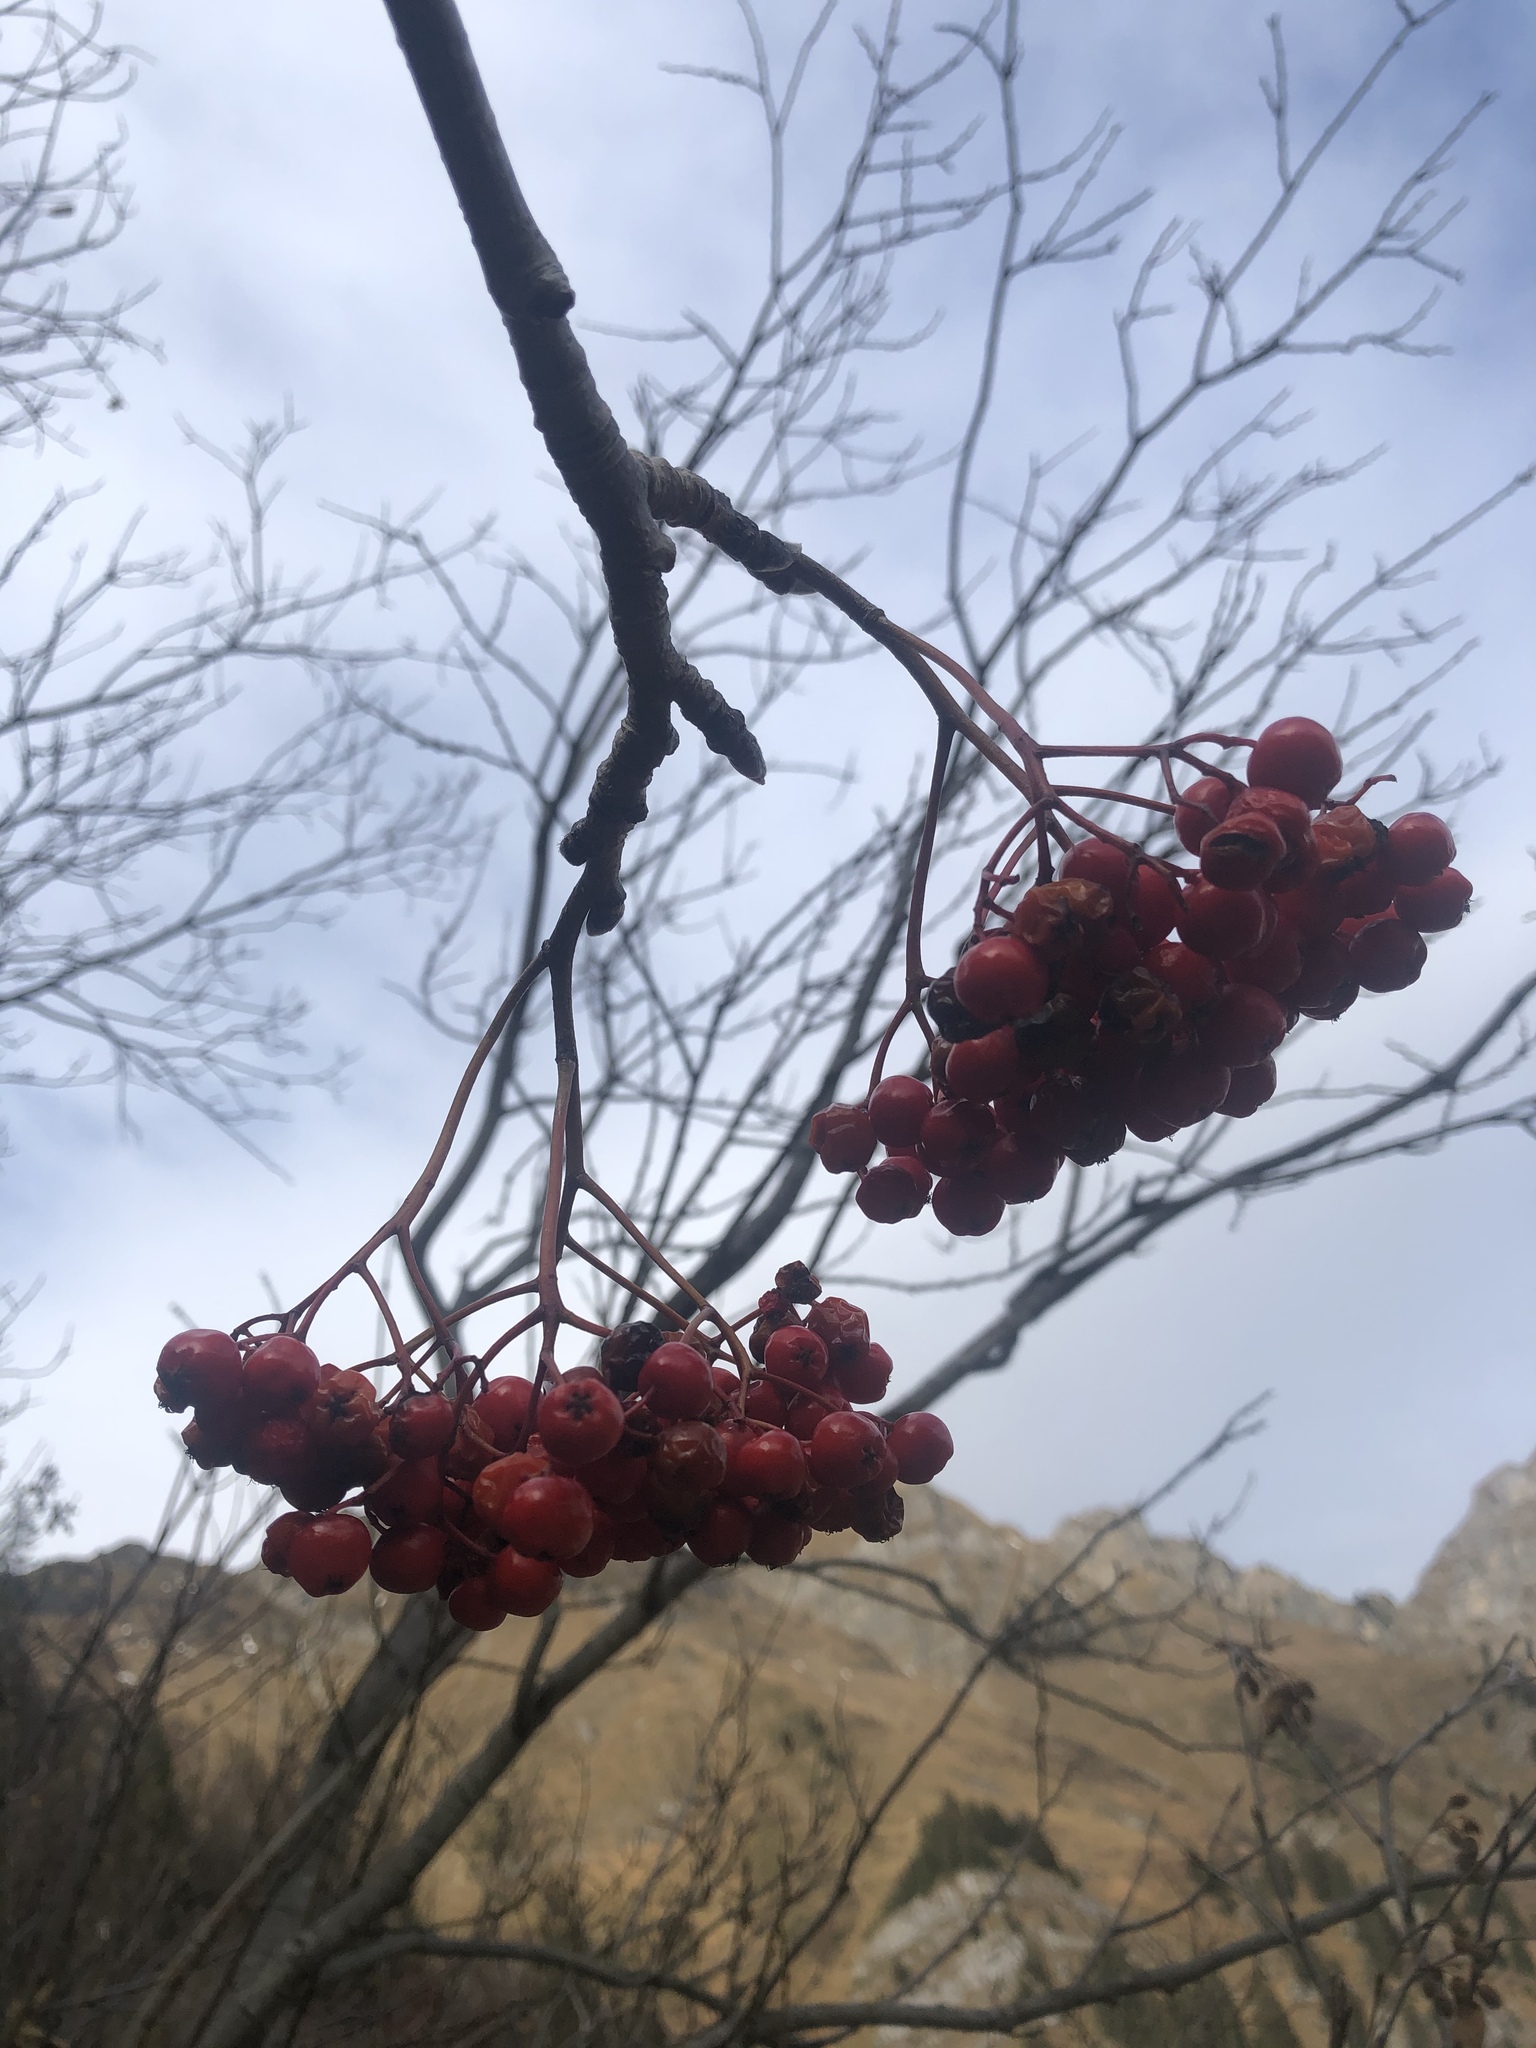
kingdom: Plantae
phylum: Tracheophyta
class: Magnoliopsida
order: Rosales
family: Rosaceae
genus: Sorbus
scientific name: Sorbus aucuparia
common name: Rowan
